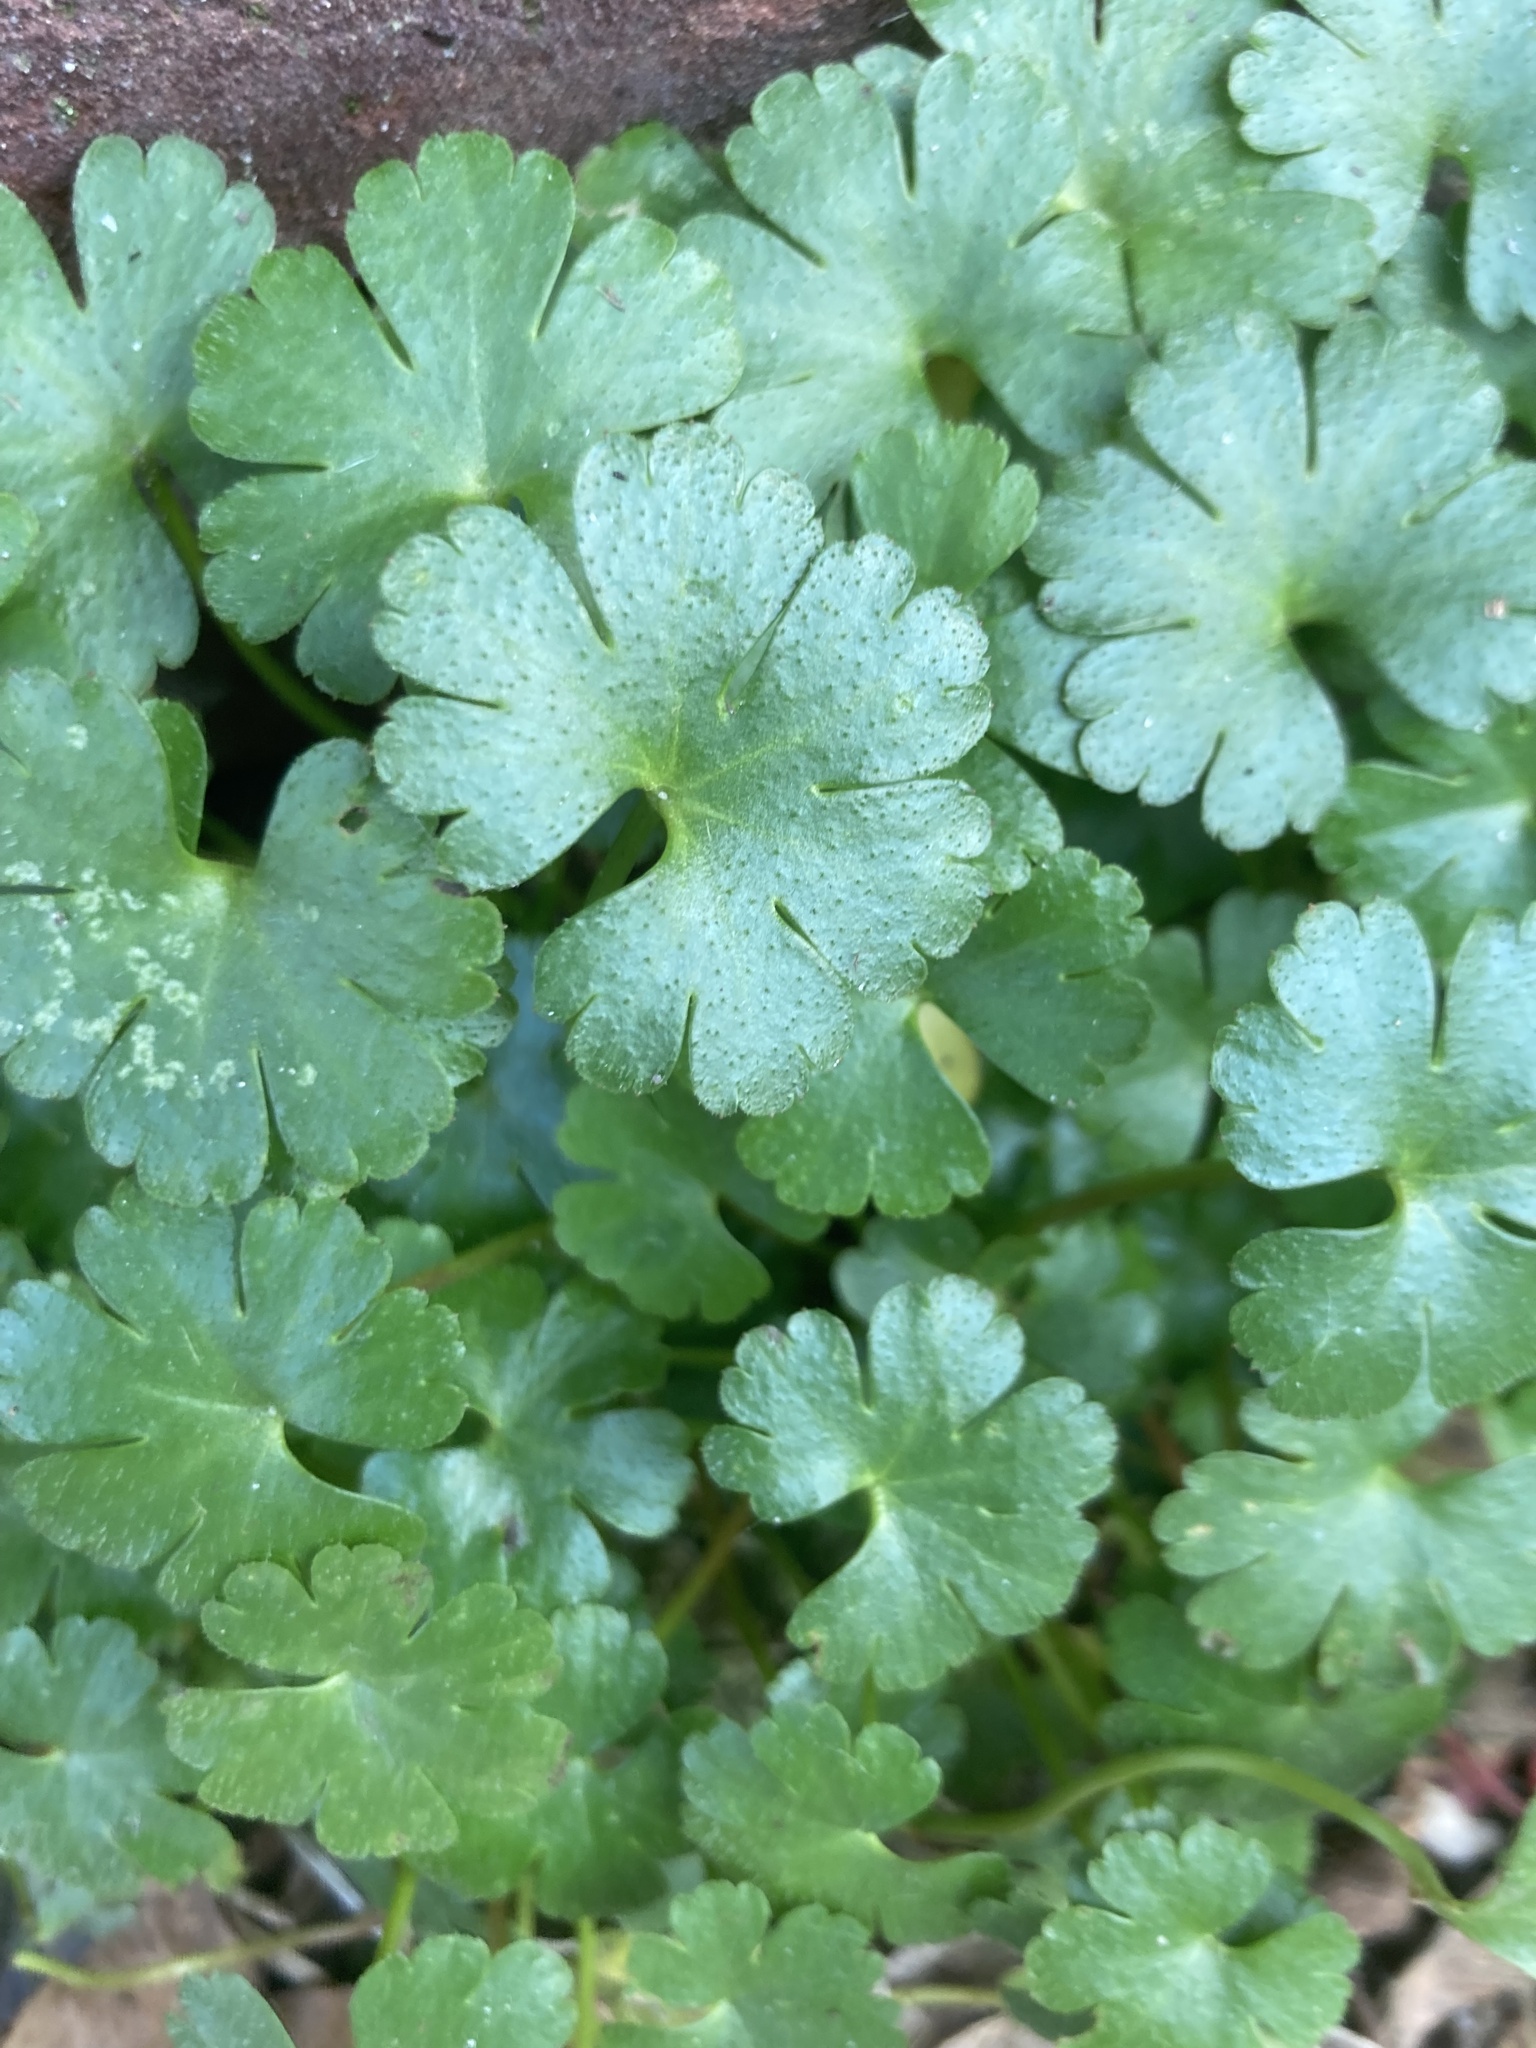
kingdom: Plantae
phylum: Tracheophyta
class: Magnoliopsida
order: Geraniales
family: Geraniaceae
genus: Geranium
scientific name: Geranium lucidum
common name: Shining crane's-bill
